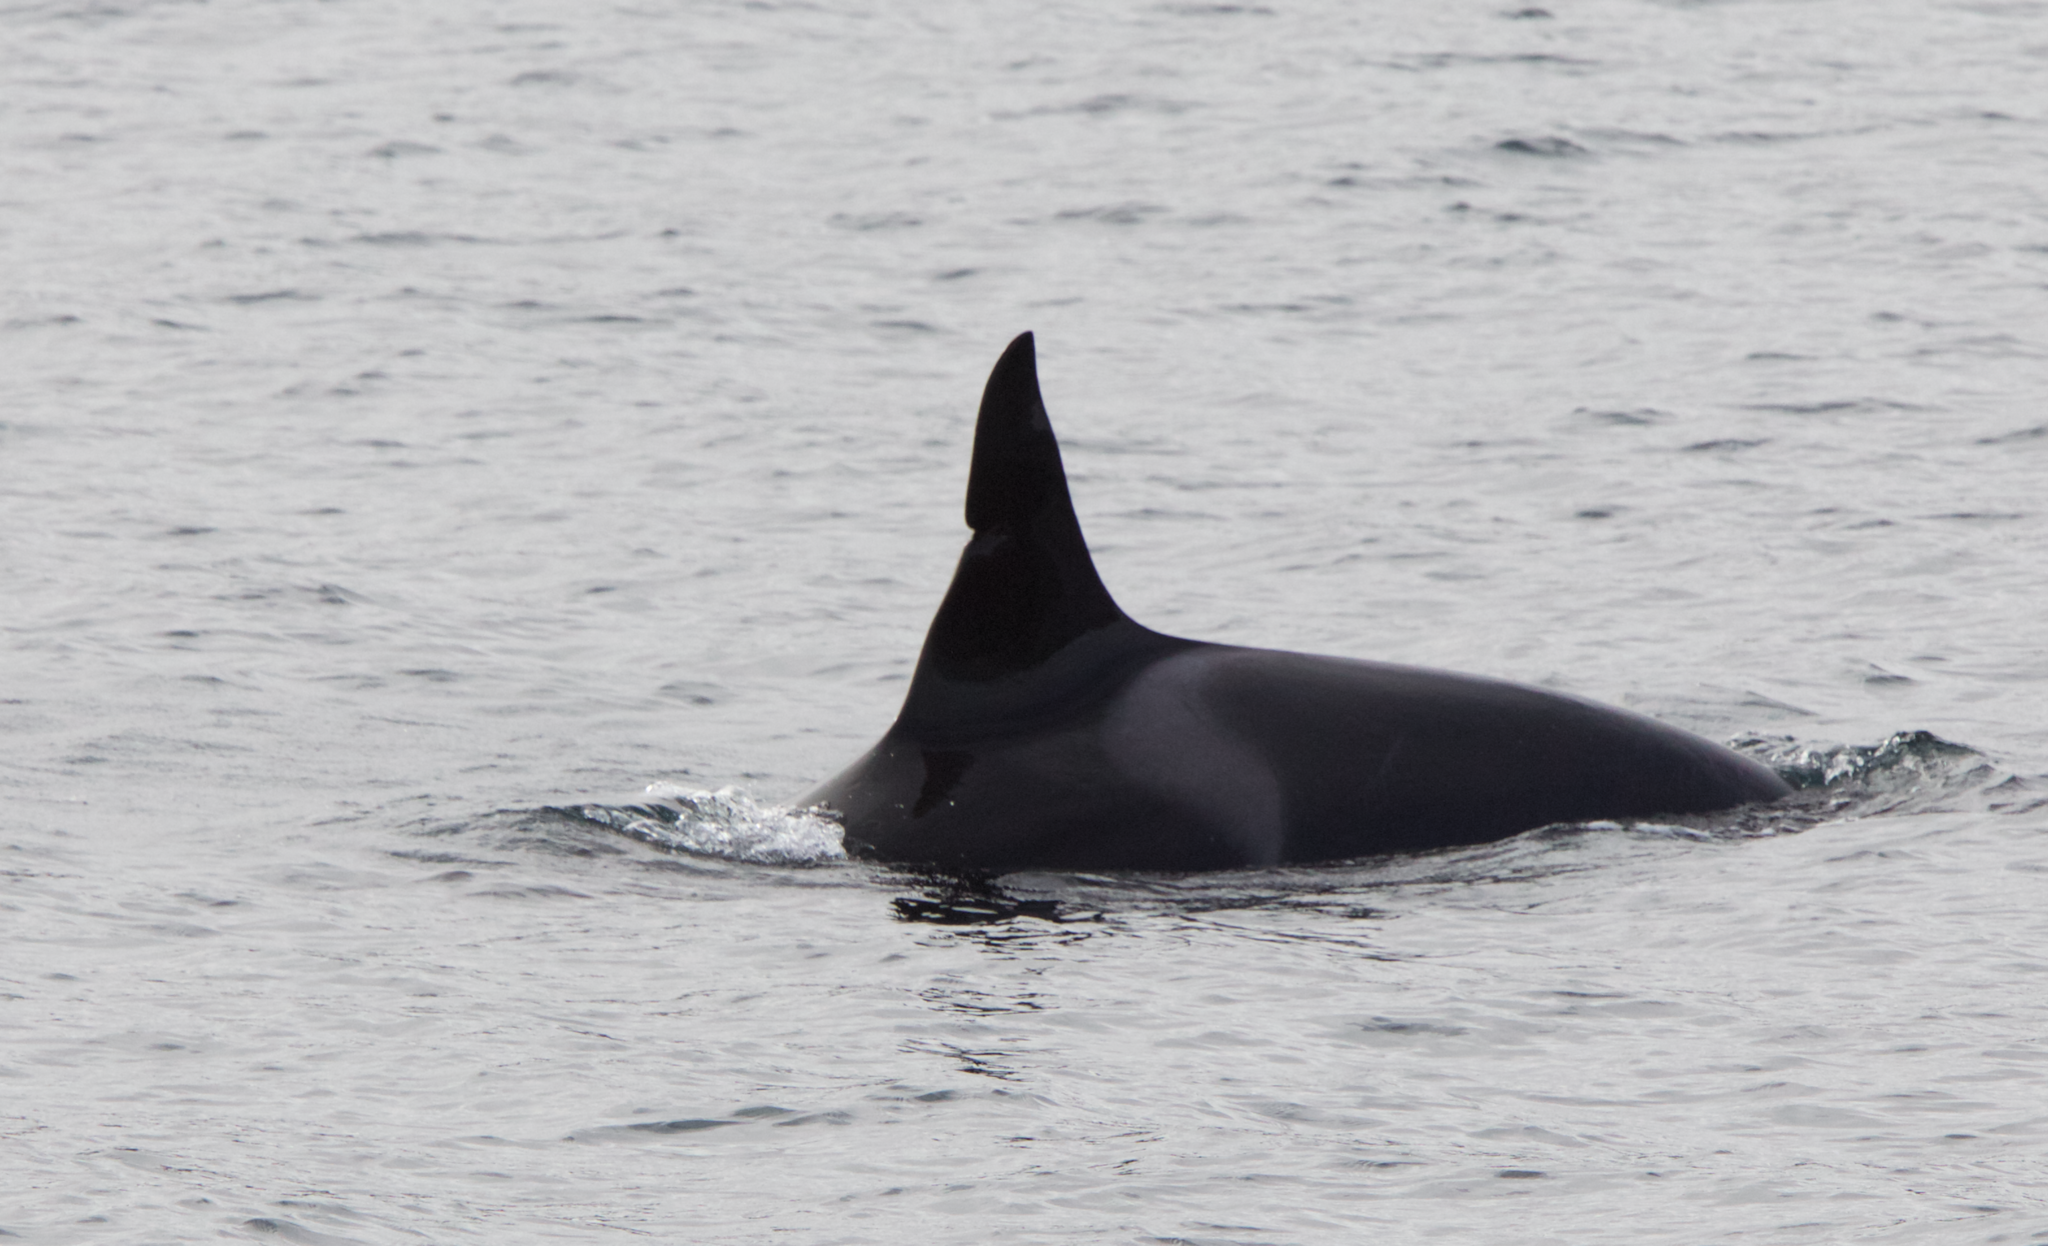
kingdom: Animalia
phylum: Chordata
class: Mammalia
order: Cetacea
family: Delphinidae
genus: Orcinus
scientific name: Orcinus orca
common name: Killer whale
